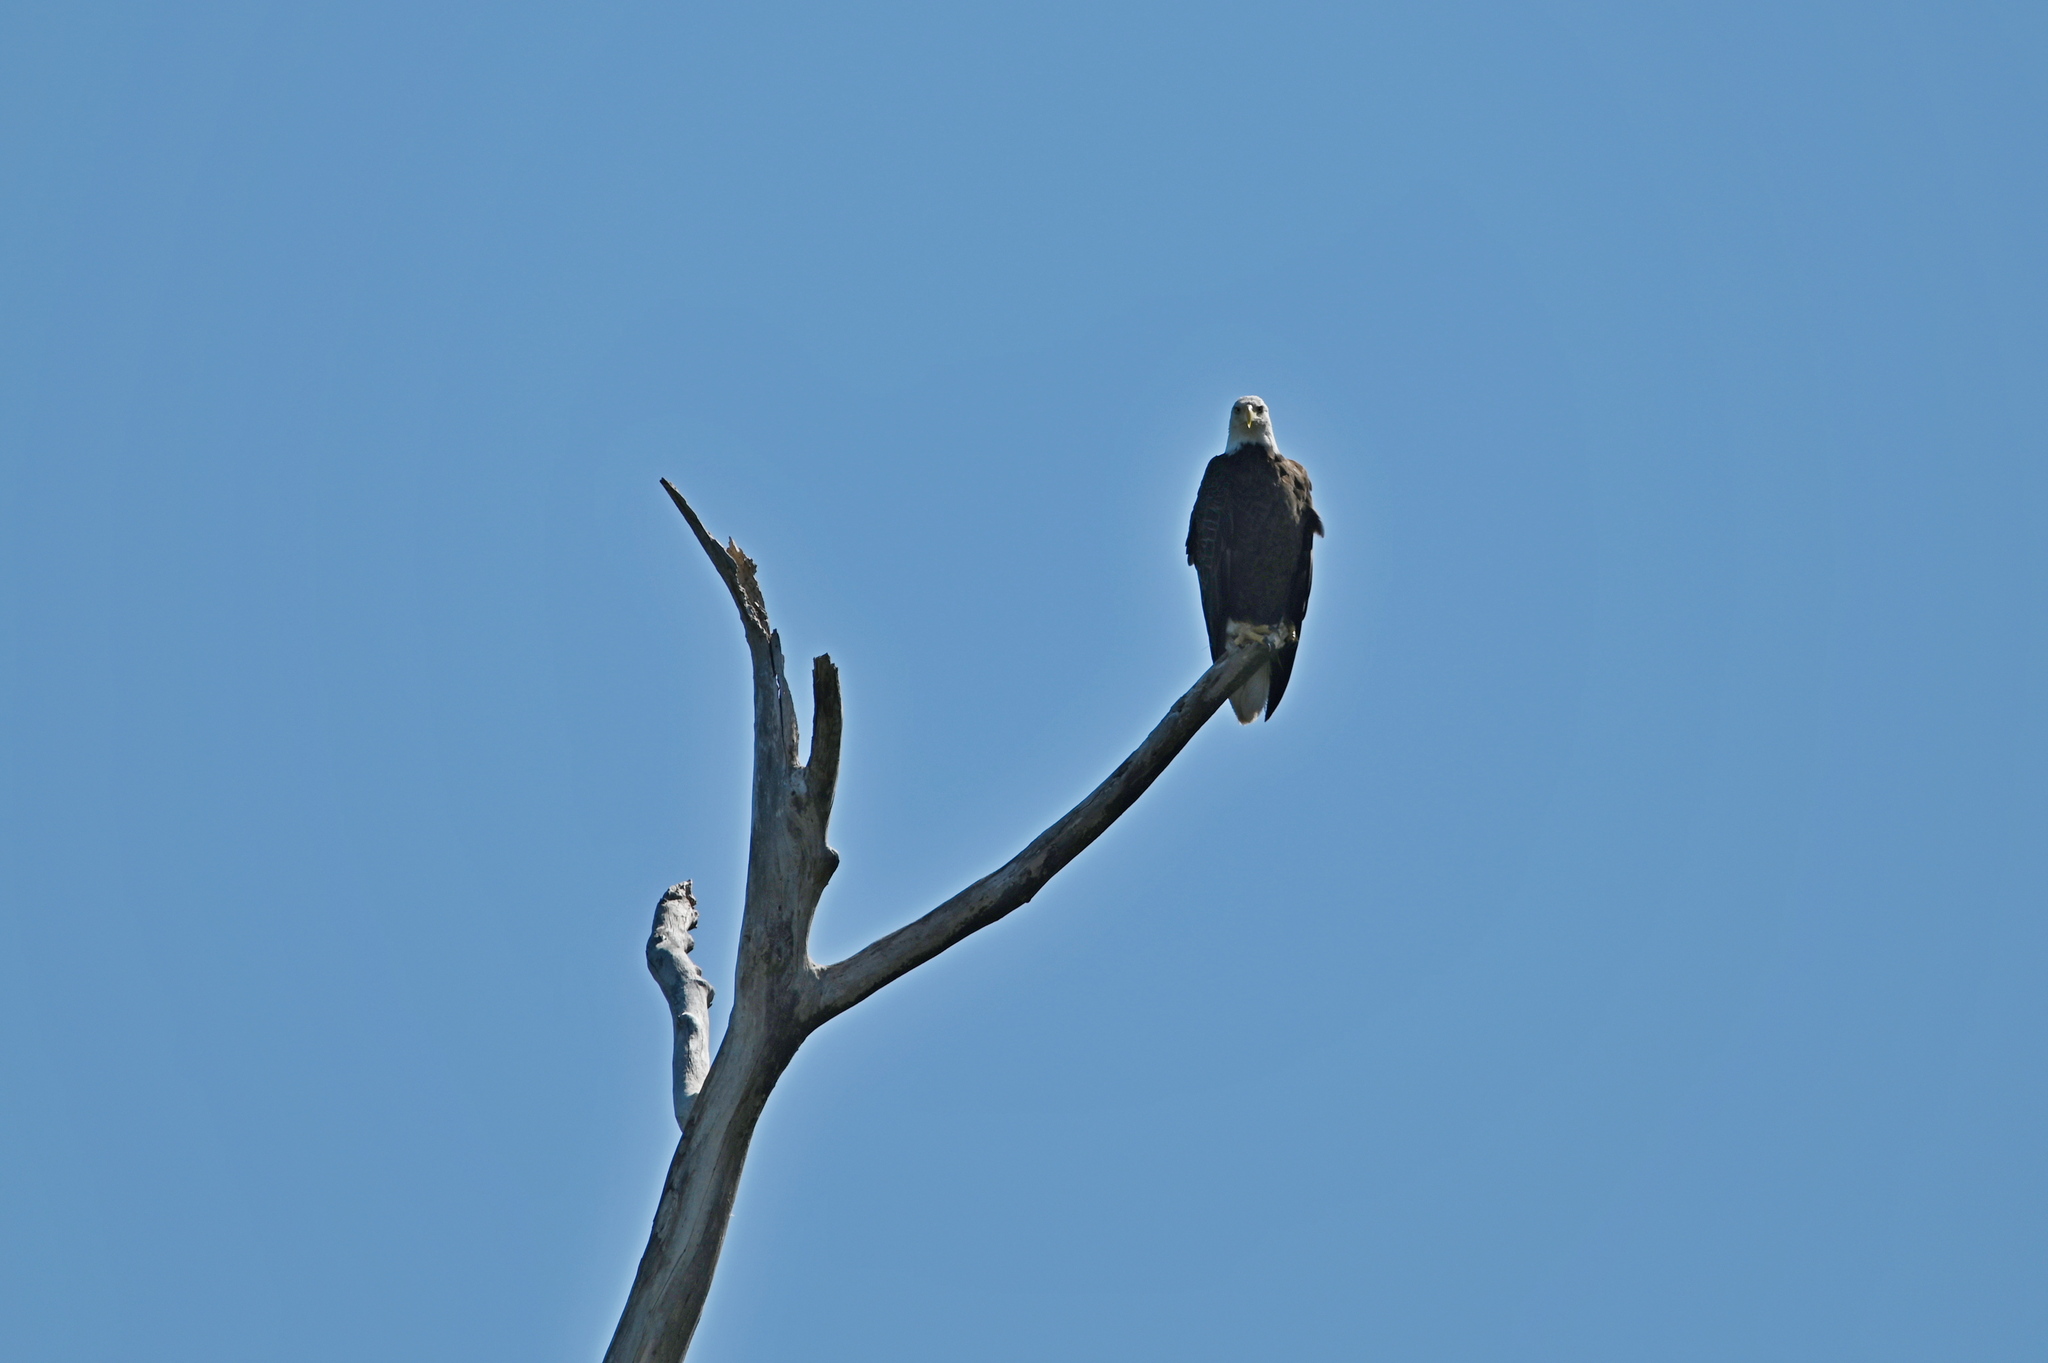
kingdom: Animalia
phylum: Chordata
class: Aves
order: Accipitriformes
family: Accipitridae
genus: Haliaeetus
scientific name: Haliaeetus leucocephalus
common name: Bald eagle
